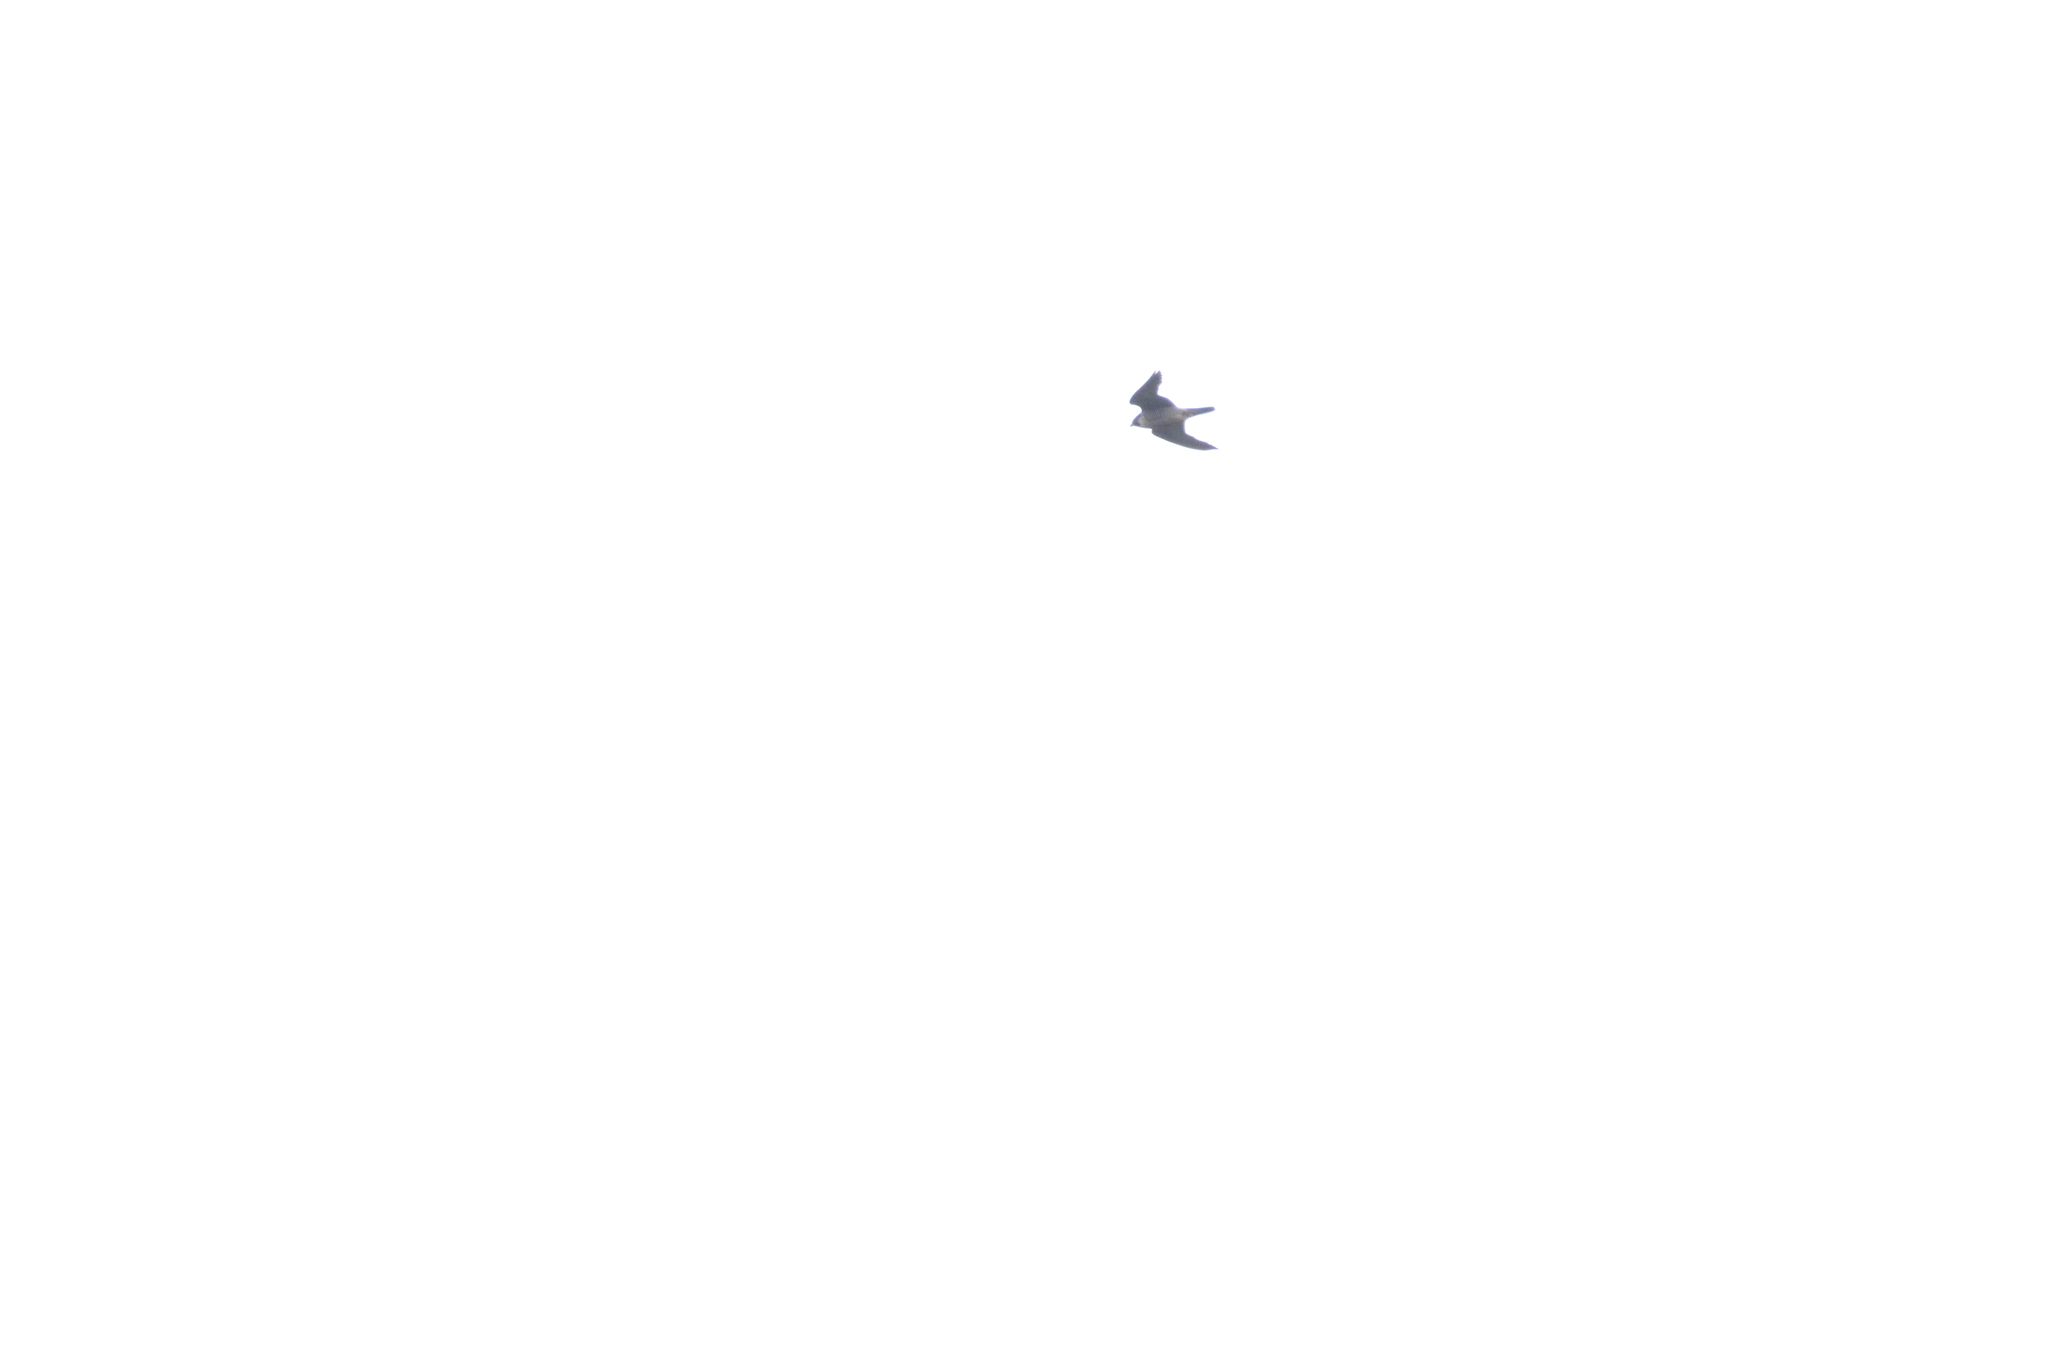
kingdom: Animalia
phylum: Chordata
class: Aves
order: Falconiformes
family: Falconidae
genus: Falco
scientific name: Falco peregrinus
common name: Peregrine falcon
